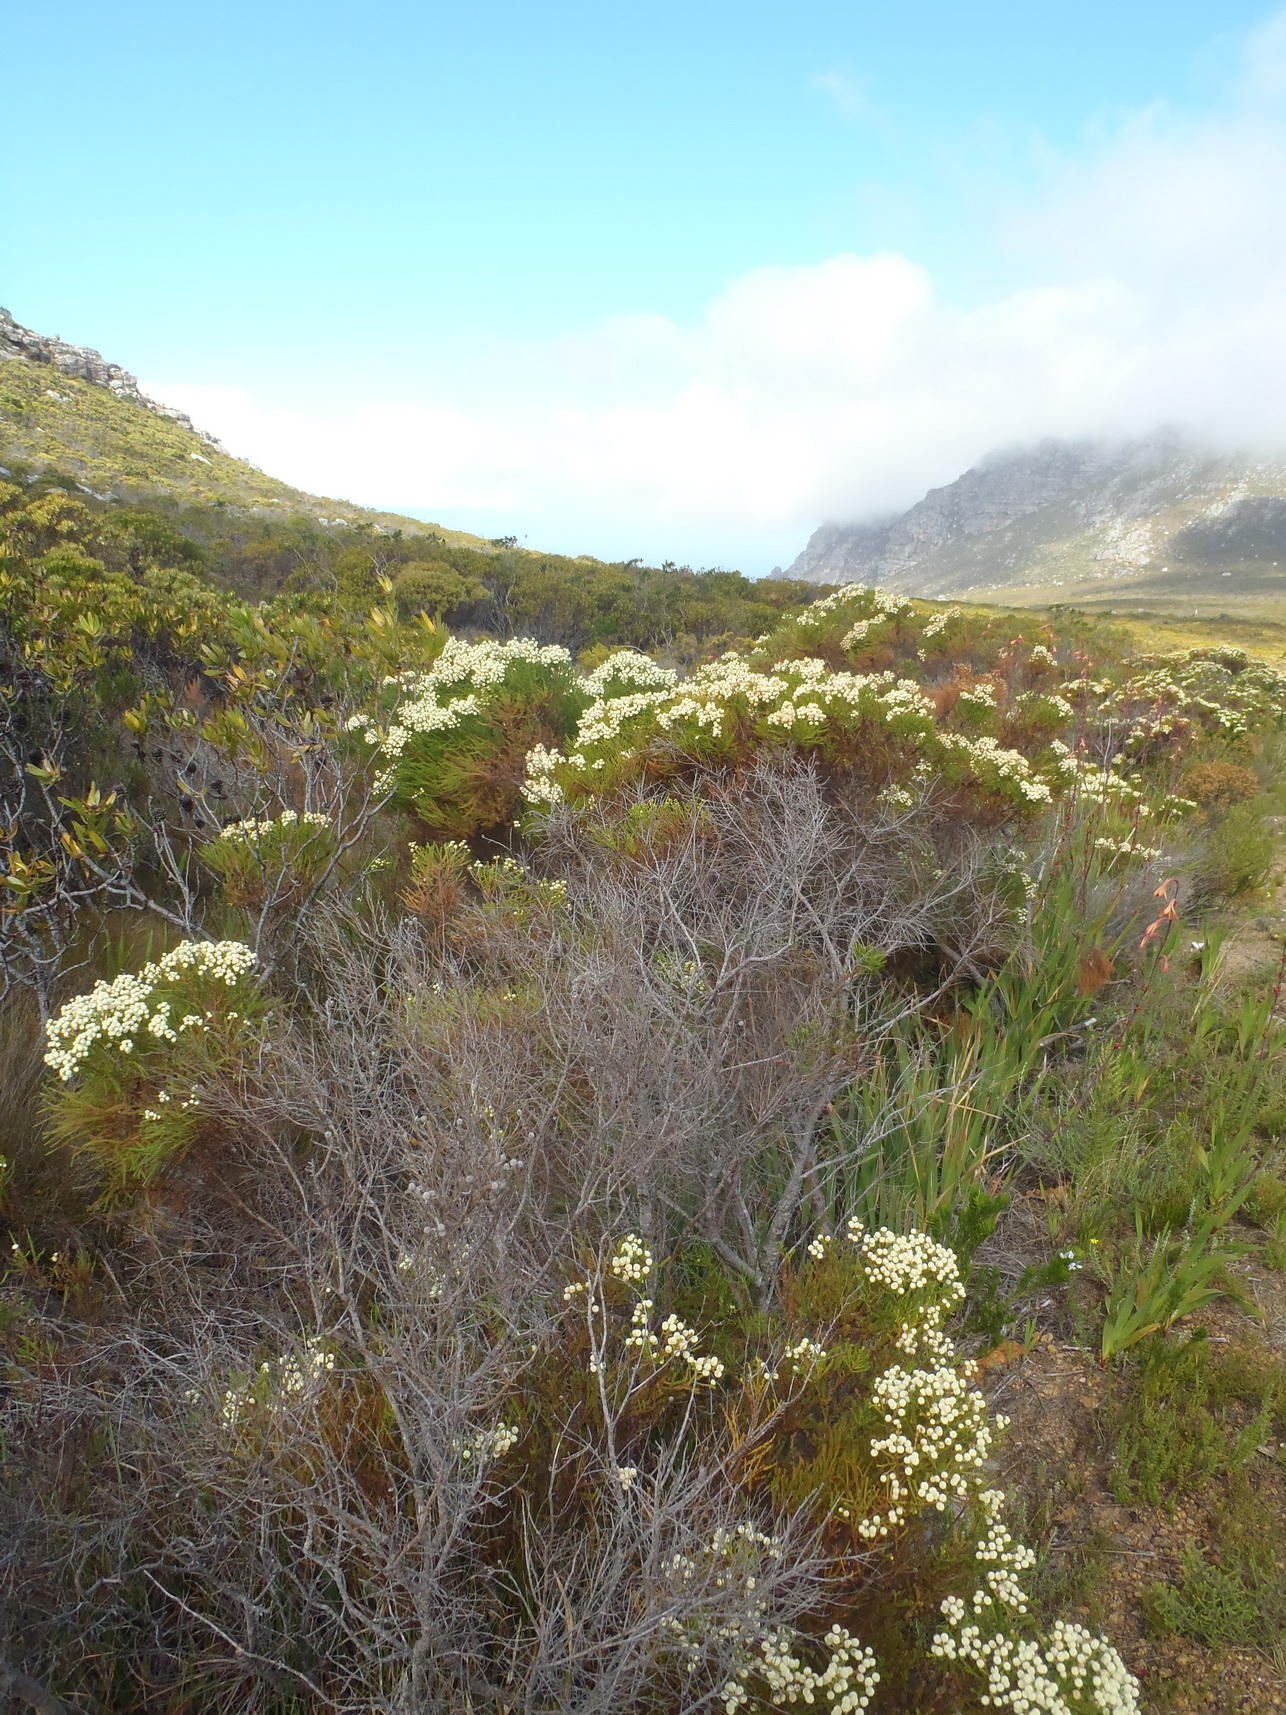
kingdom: Plantae
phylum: Tracheophyta
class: Magnoliopsida
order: Bruniales
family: Bruniaceae
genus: Berzelia
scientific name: Berzelia lanuginosa
